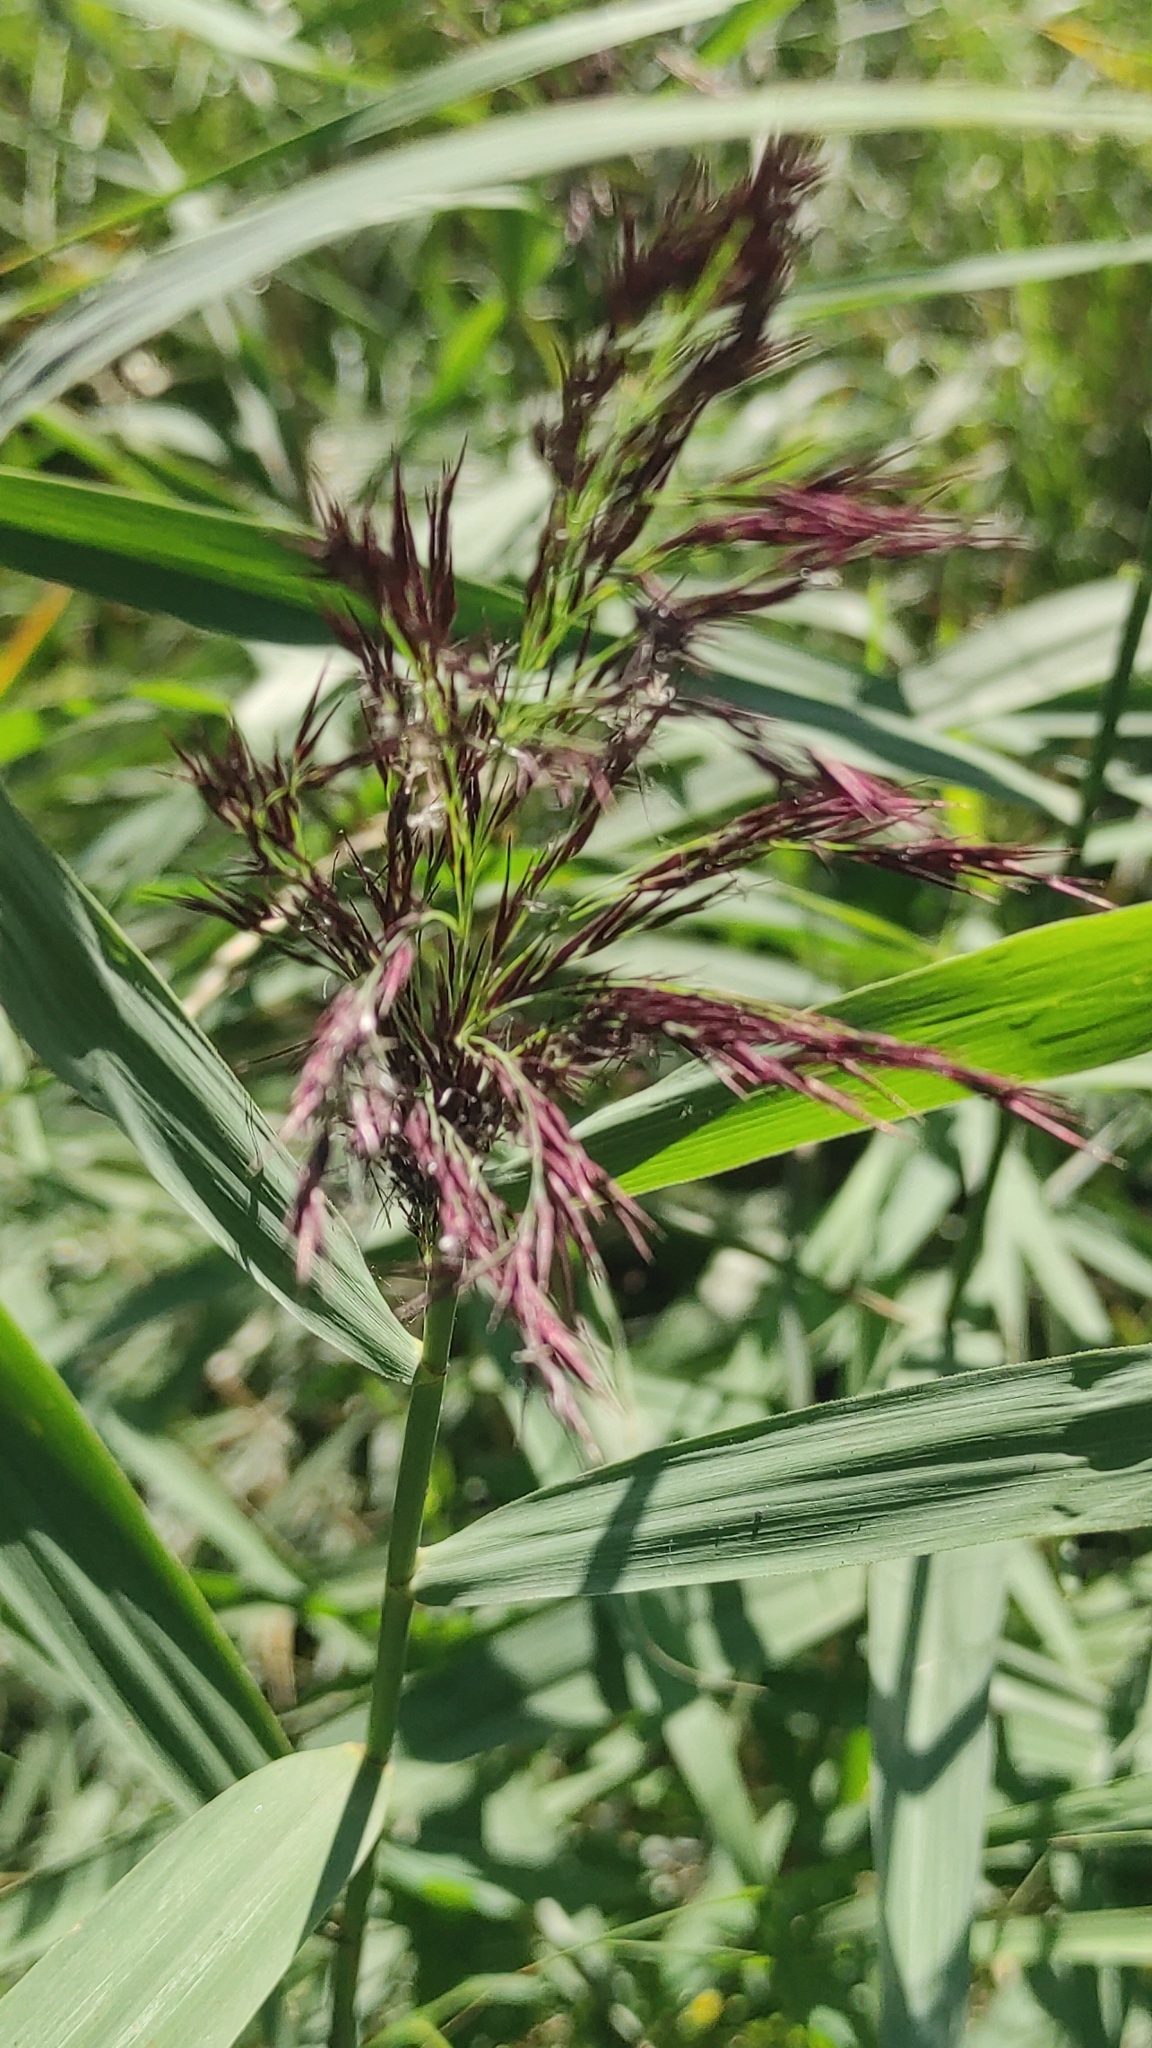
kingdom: Plantae
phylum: Tracheophyta
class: Liliopsida
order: Poales
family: Poaceae
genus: Phragmites
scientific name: Phragmites australis
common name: Common reed
